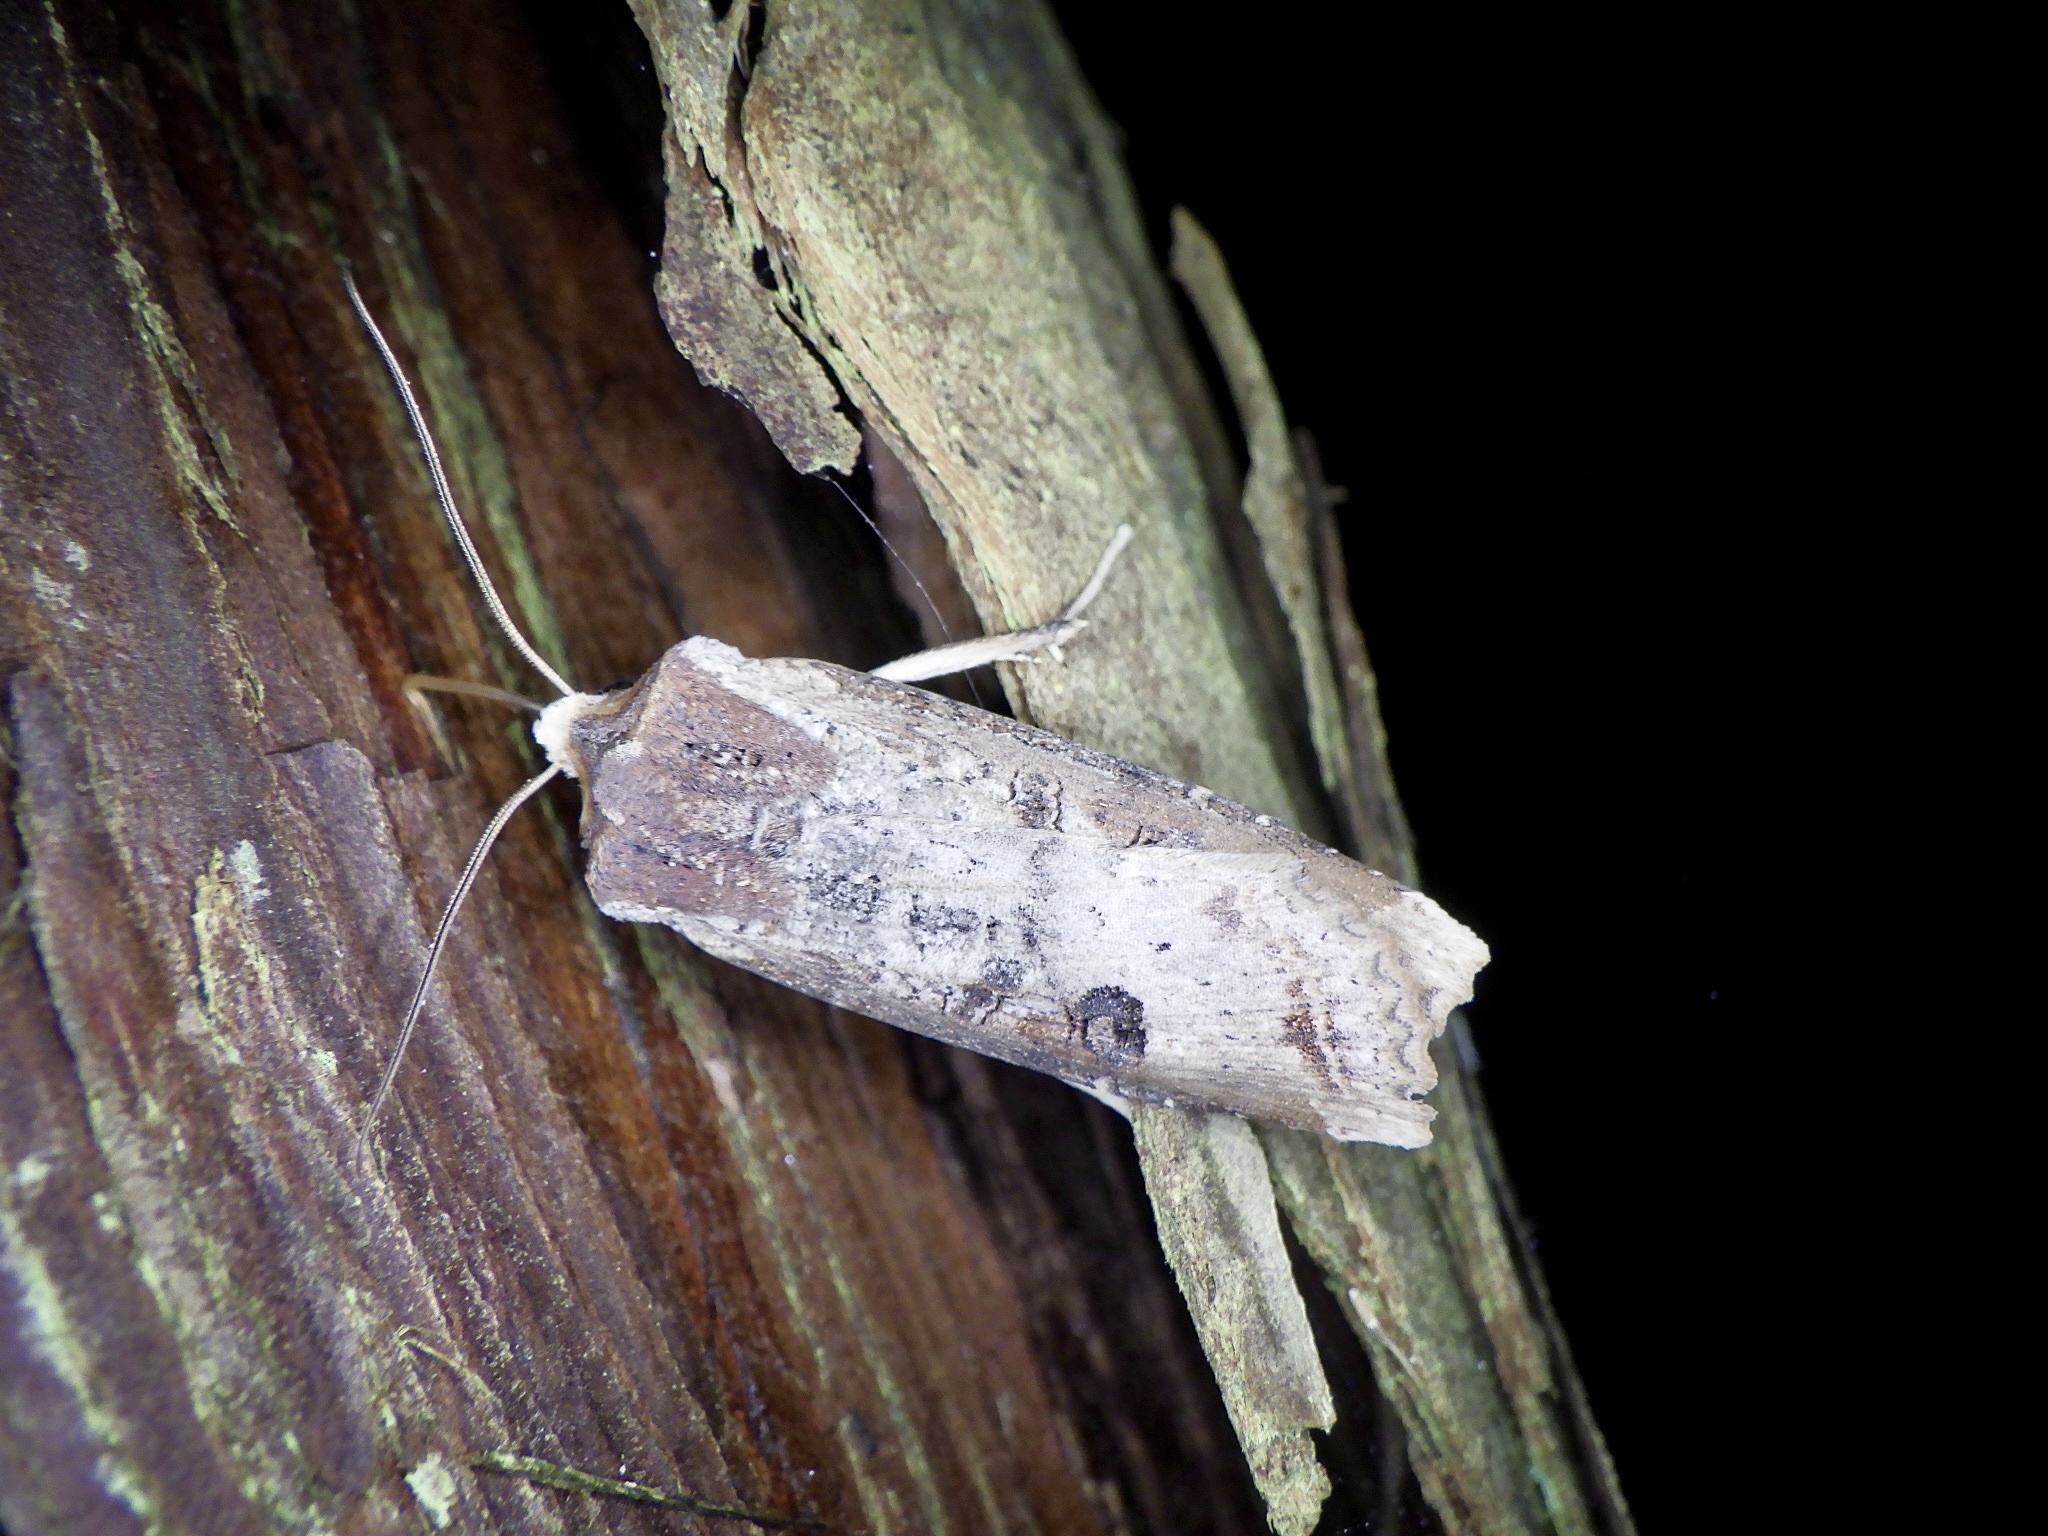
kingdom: Animalia
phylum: Arthropoda
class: Insecta
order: Lepidoptera
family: Noctuidae
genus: Xylena
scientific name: Xylena formosa
